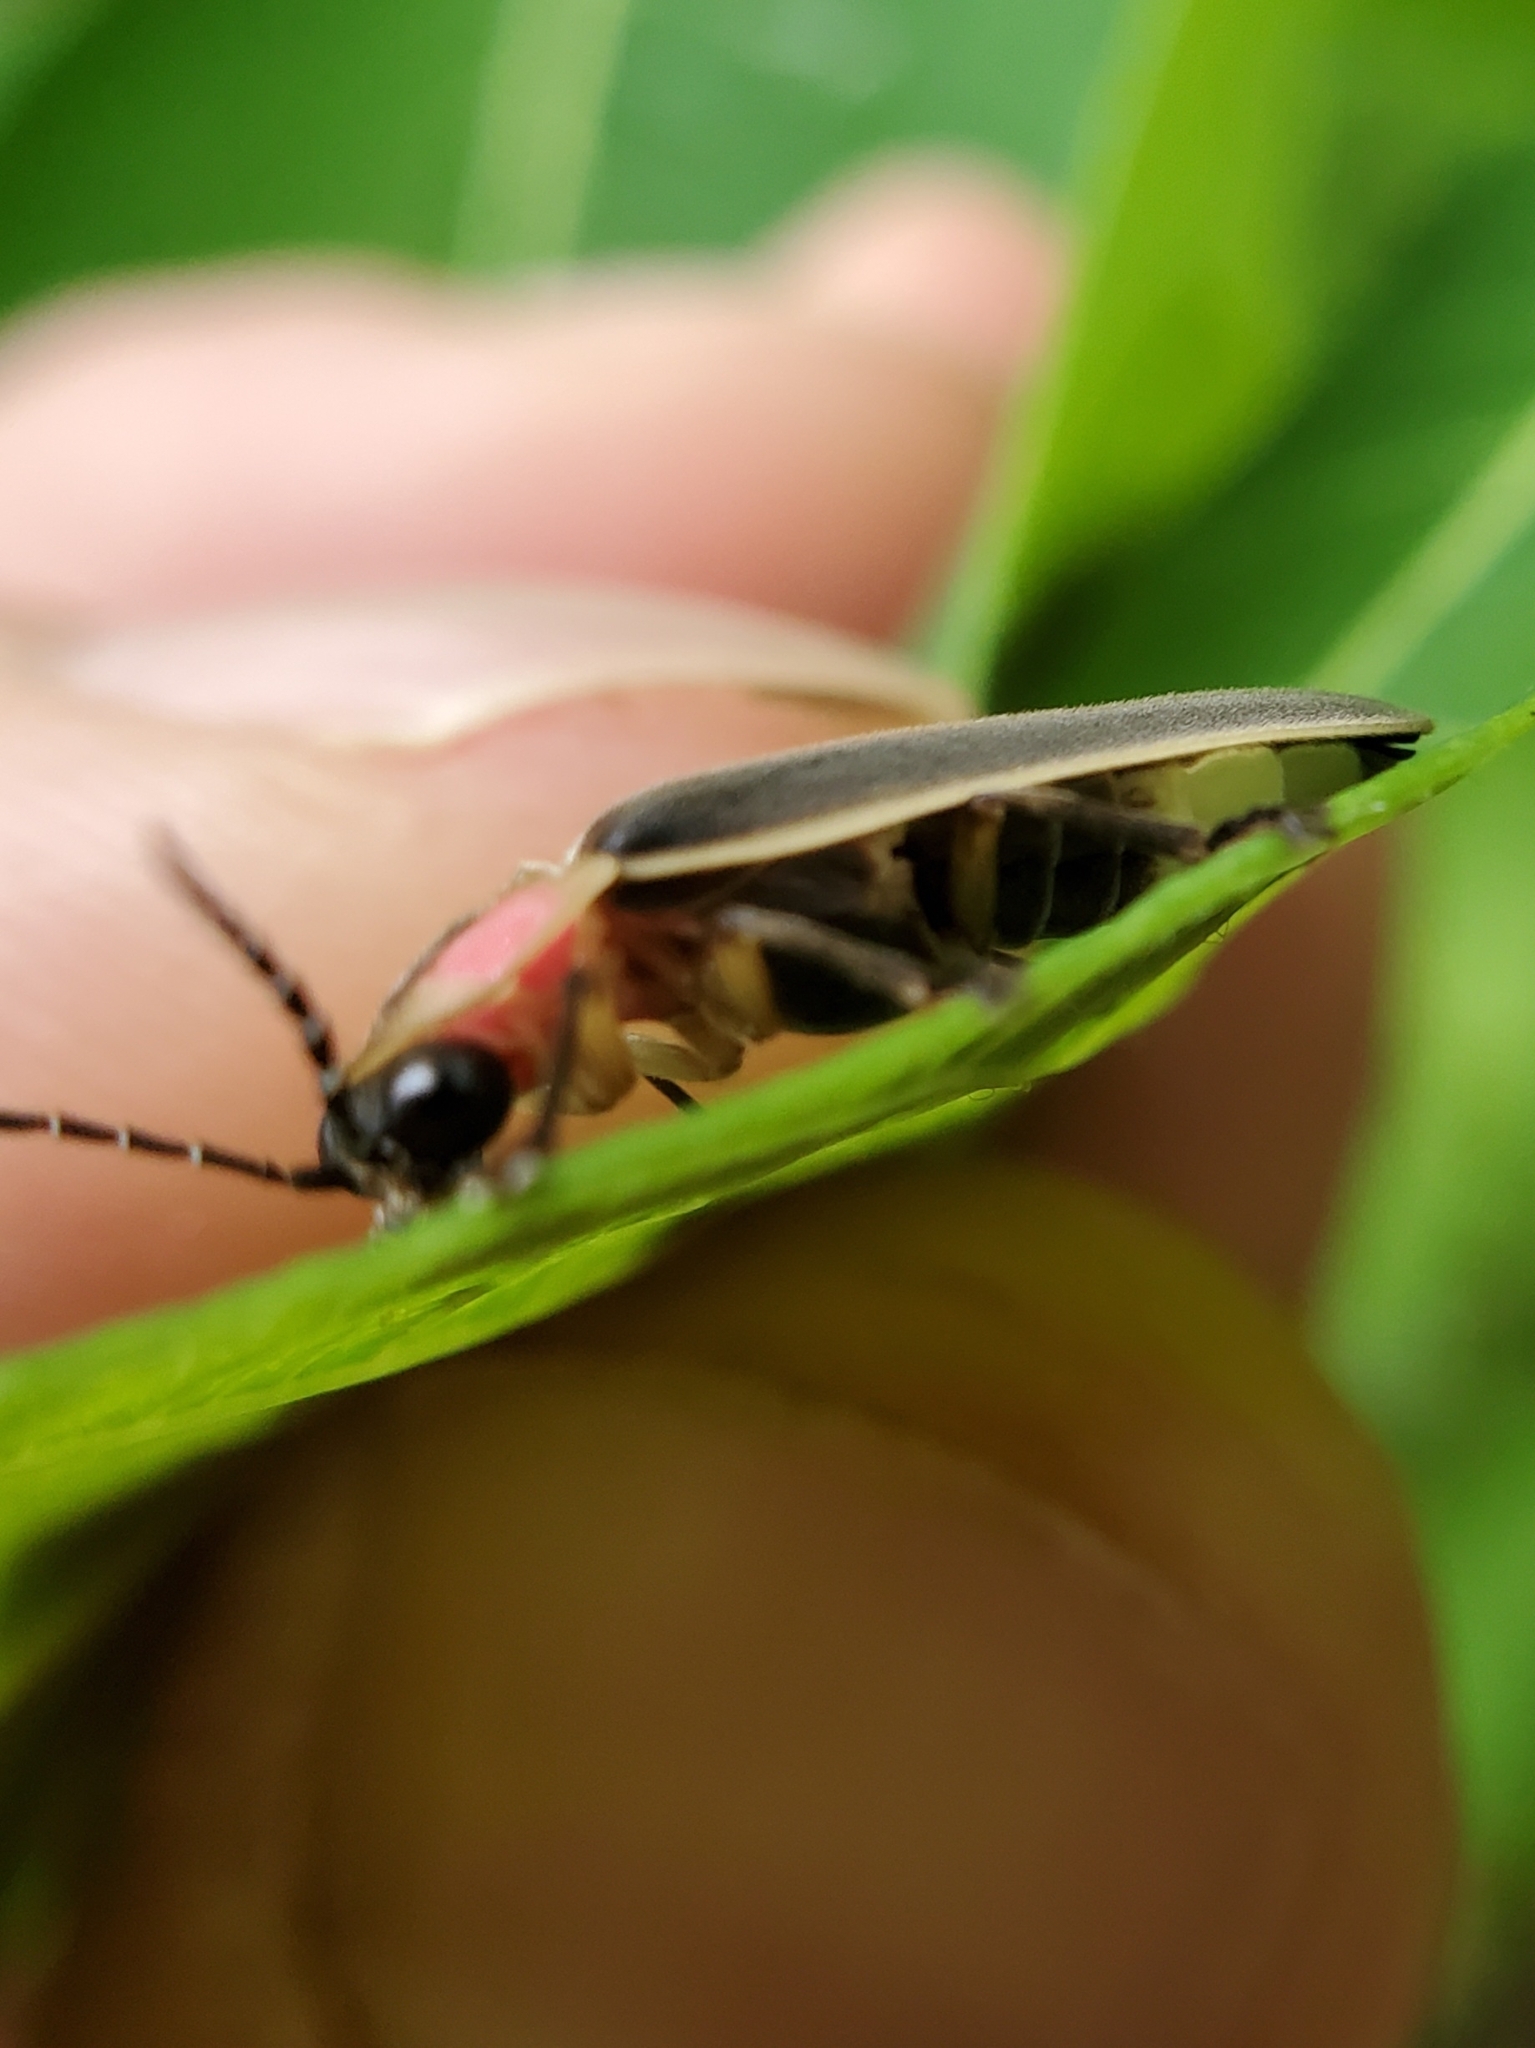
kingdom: Animalia
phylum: Arthropoda
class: Insecta
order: Coleoptera
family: Lampyridae
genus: Photinus
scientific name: Photinus pyralis
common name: Big dipper firefly
